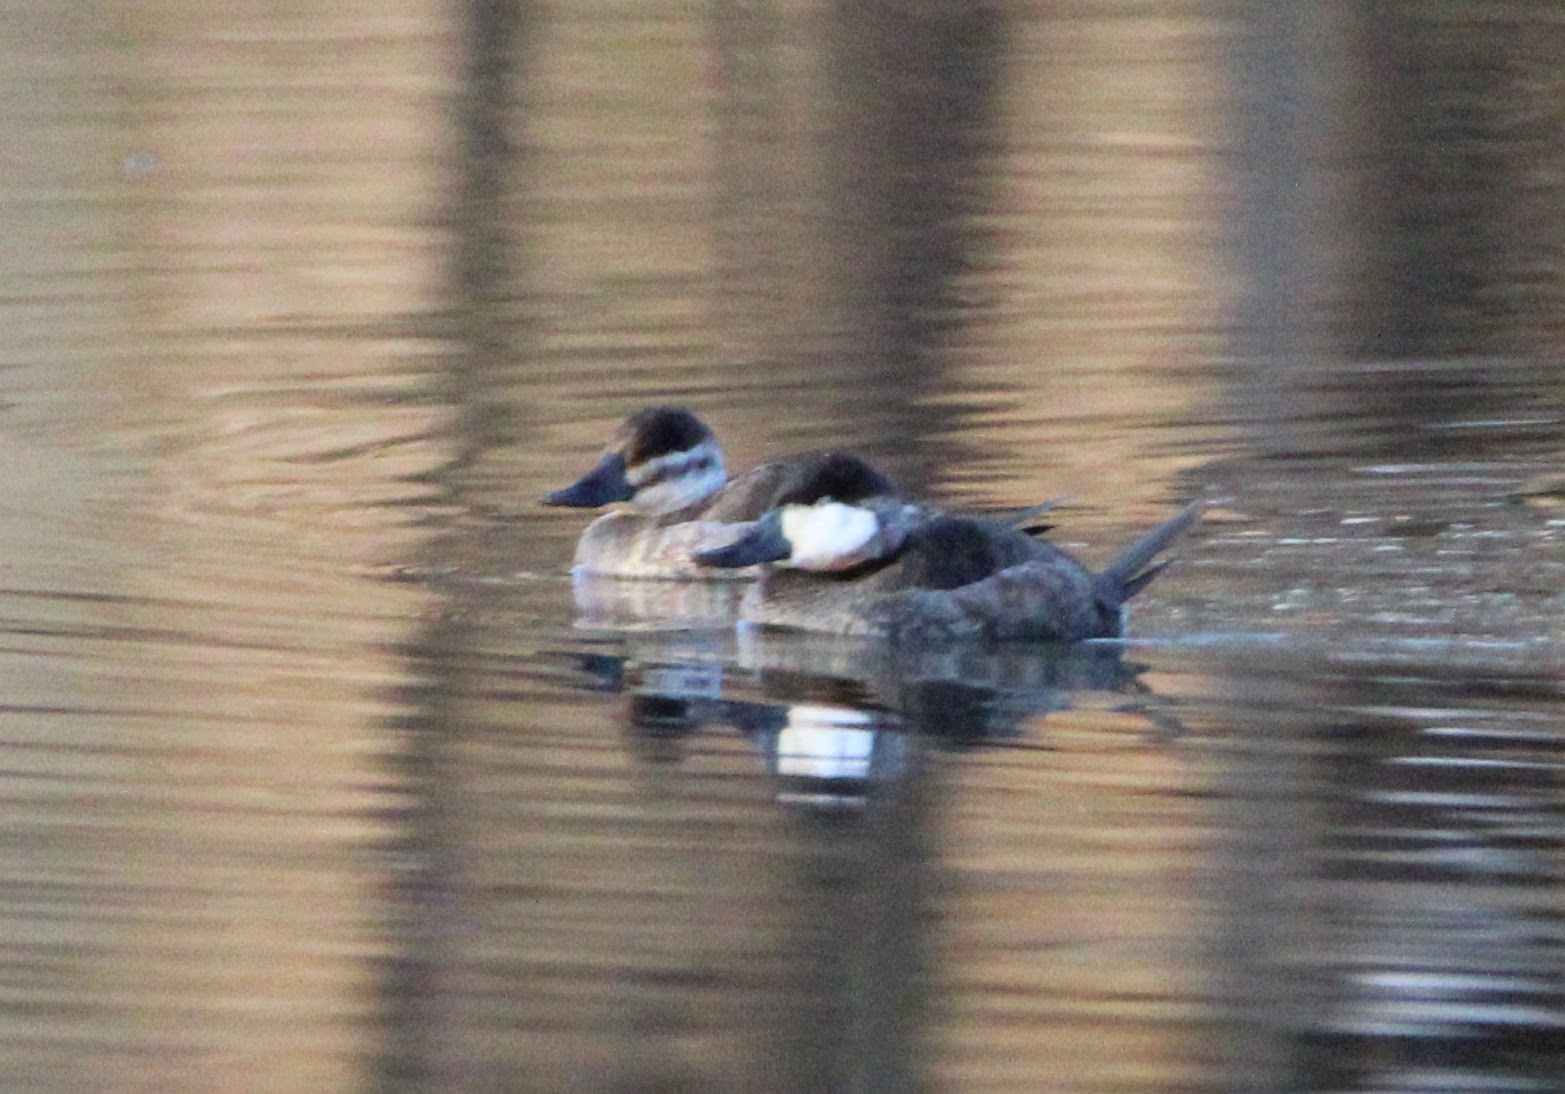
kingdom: Animalia
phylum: Chordata
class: Aves
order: Anseriformes
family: Anatidae
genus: Oxyura
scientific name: Oxyura jamaicensis
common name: Ruddy duck
